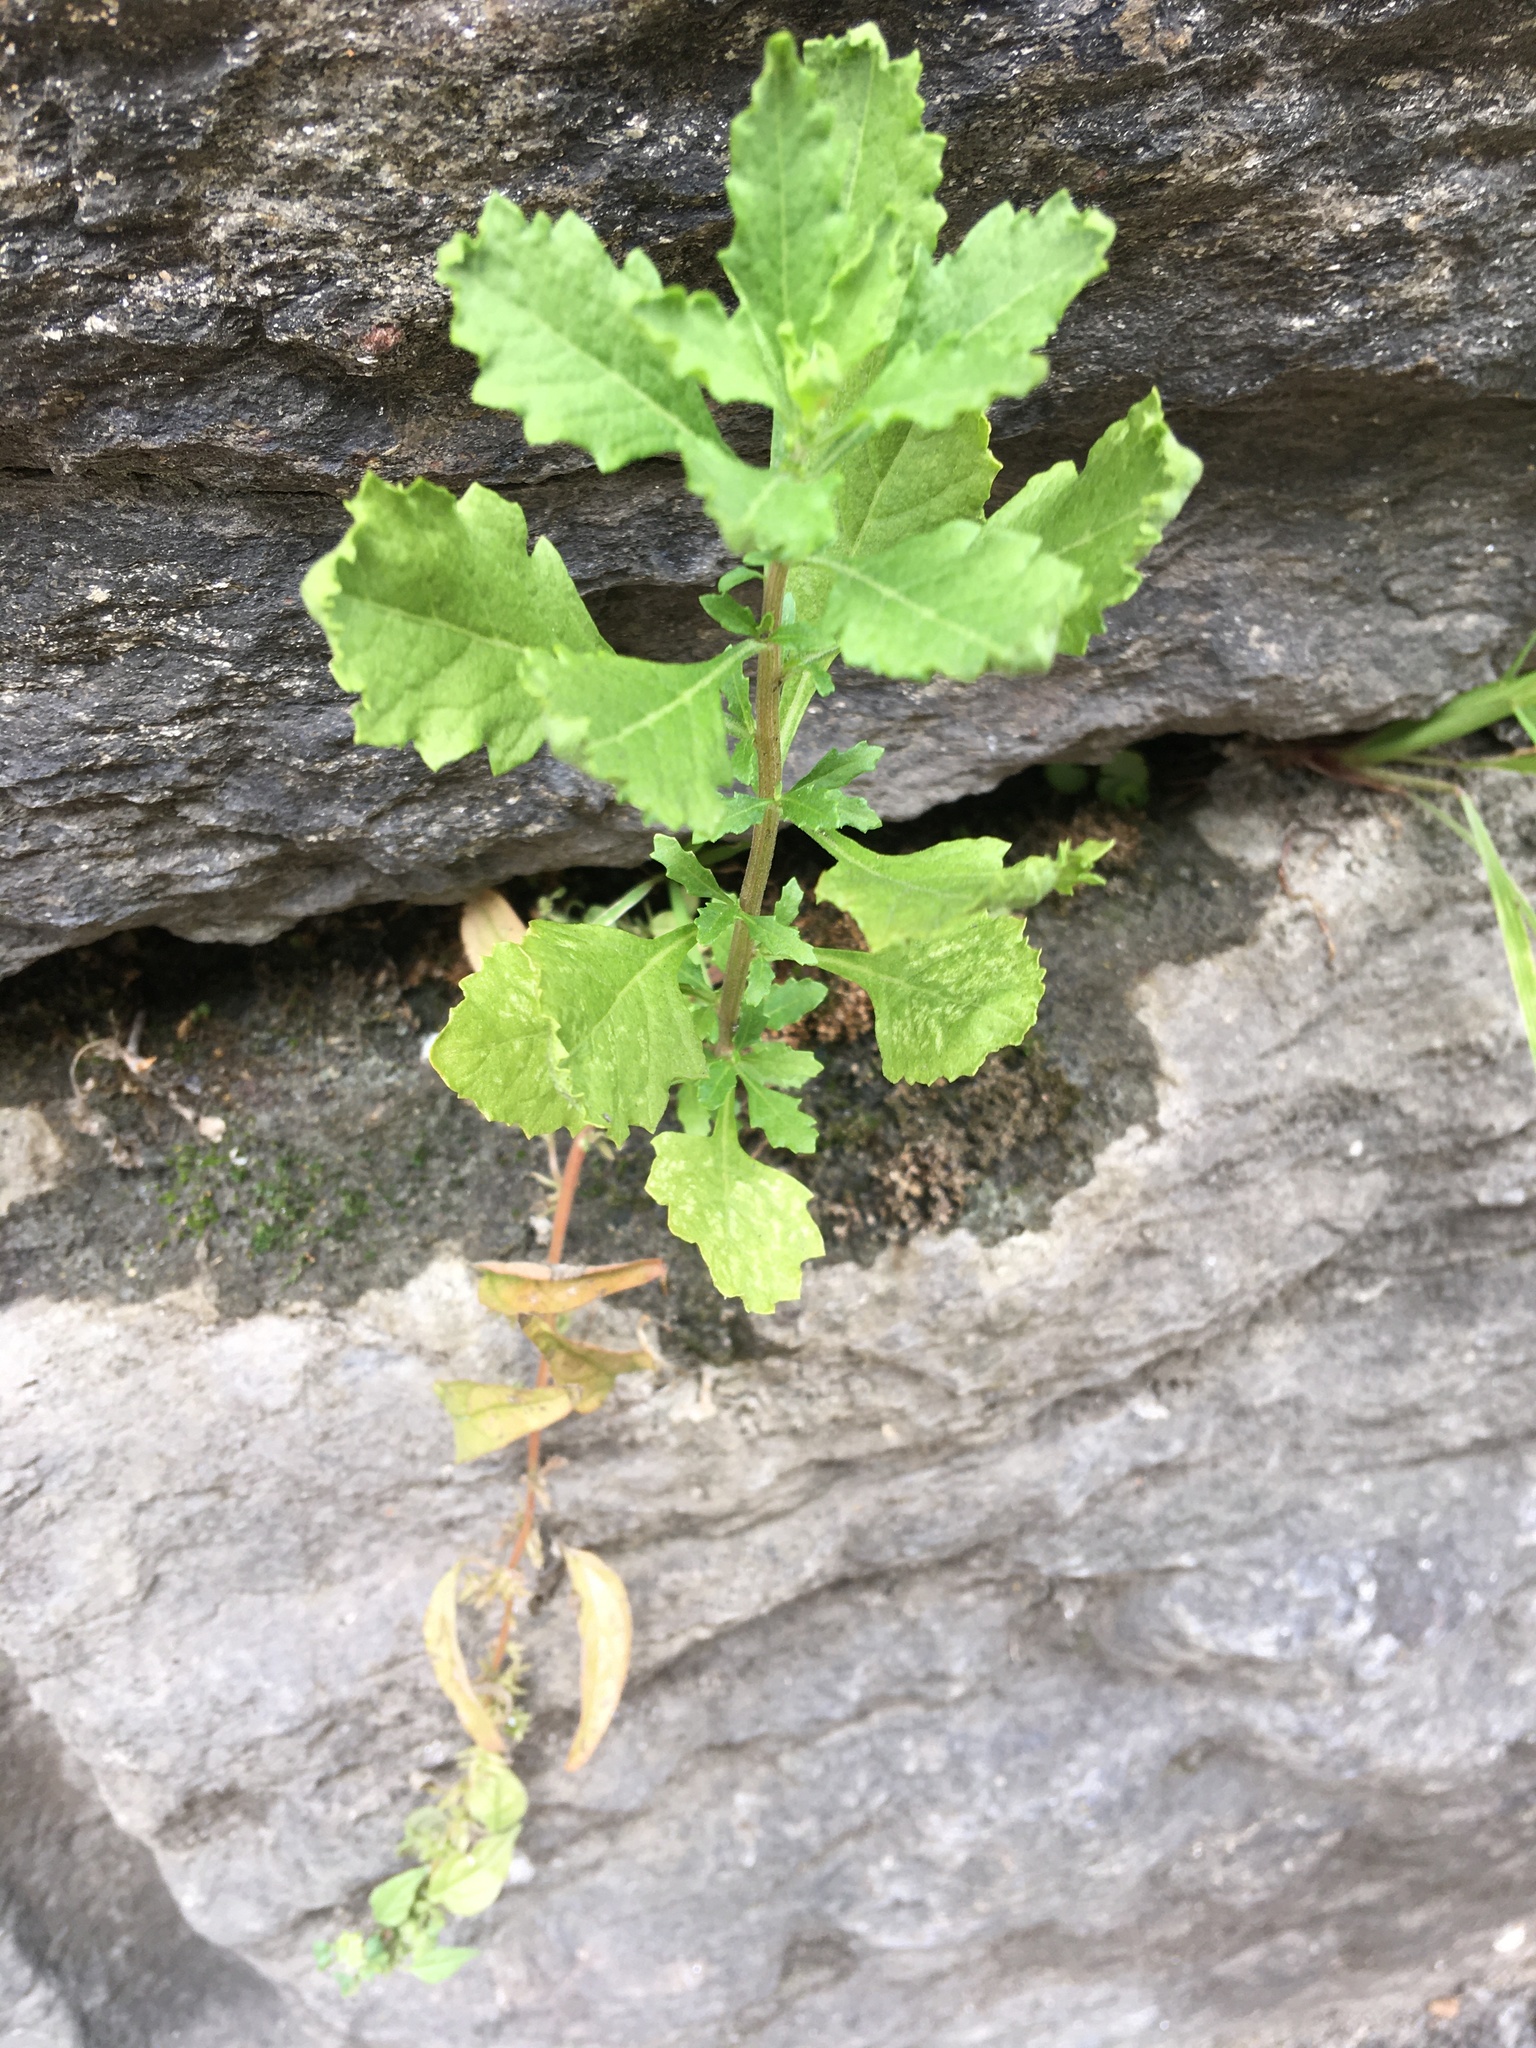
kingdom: Plantae
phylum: Tracheophyta
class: Magnoliopsida
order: Asterales
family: Asteraceae
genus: Baccharis
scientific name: Baccharis halimifolia
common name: Eastern baccharis
